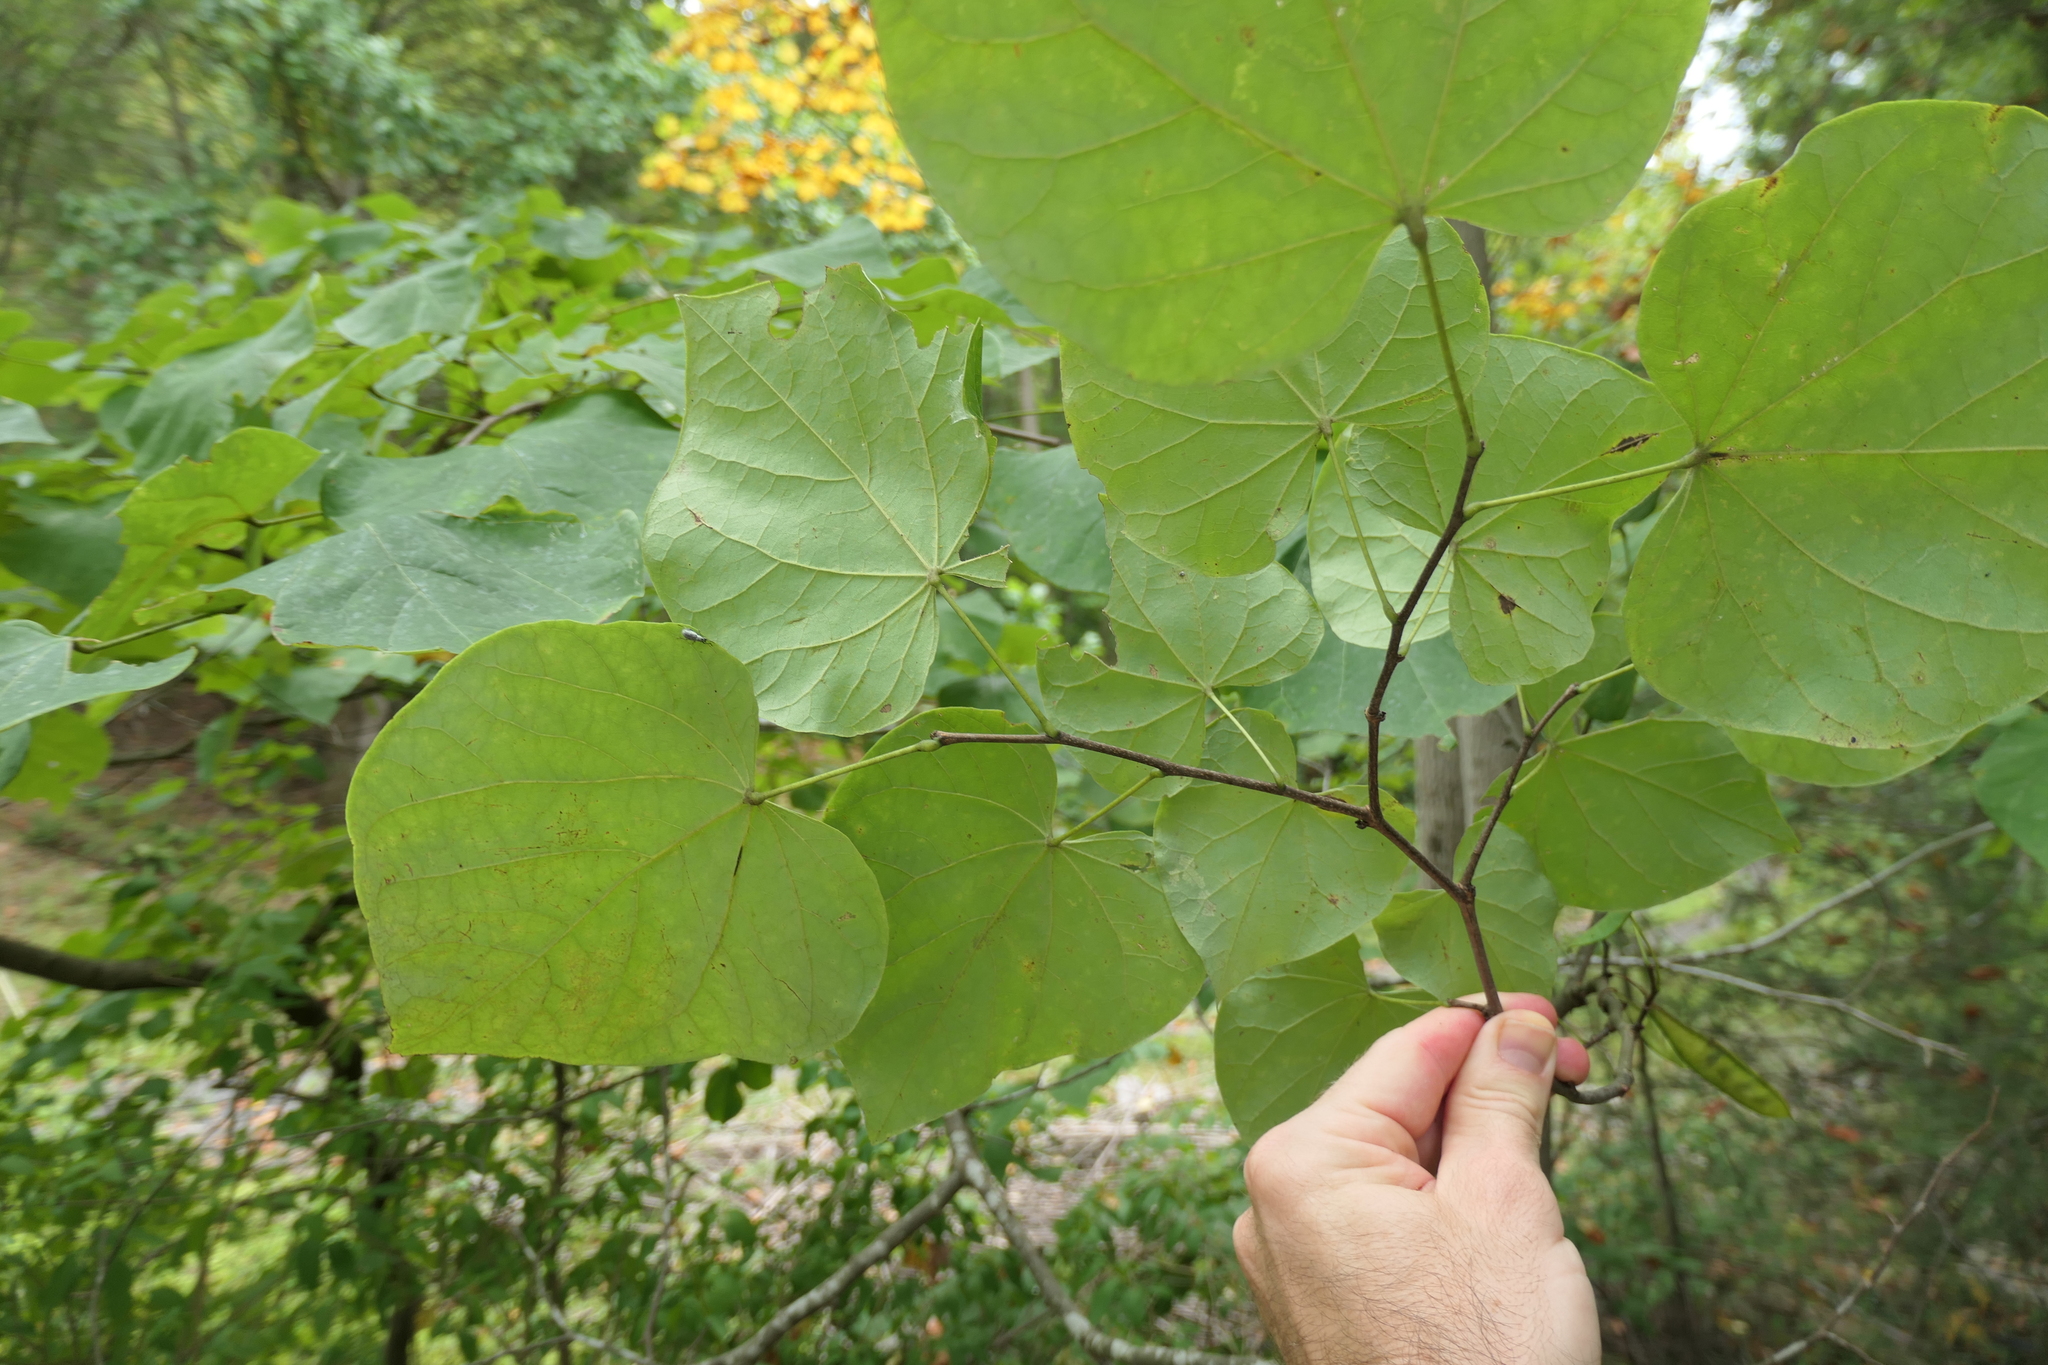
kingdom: Animalia
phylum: Arthropoda
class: Insecta
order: Coleoptera
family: Curculionidae
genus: Cyrtepistomus
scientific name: Cyrtepistomus castaneus
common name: Weevil
